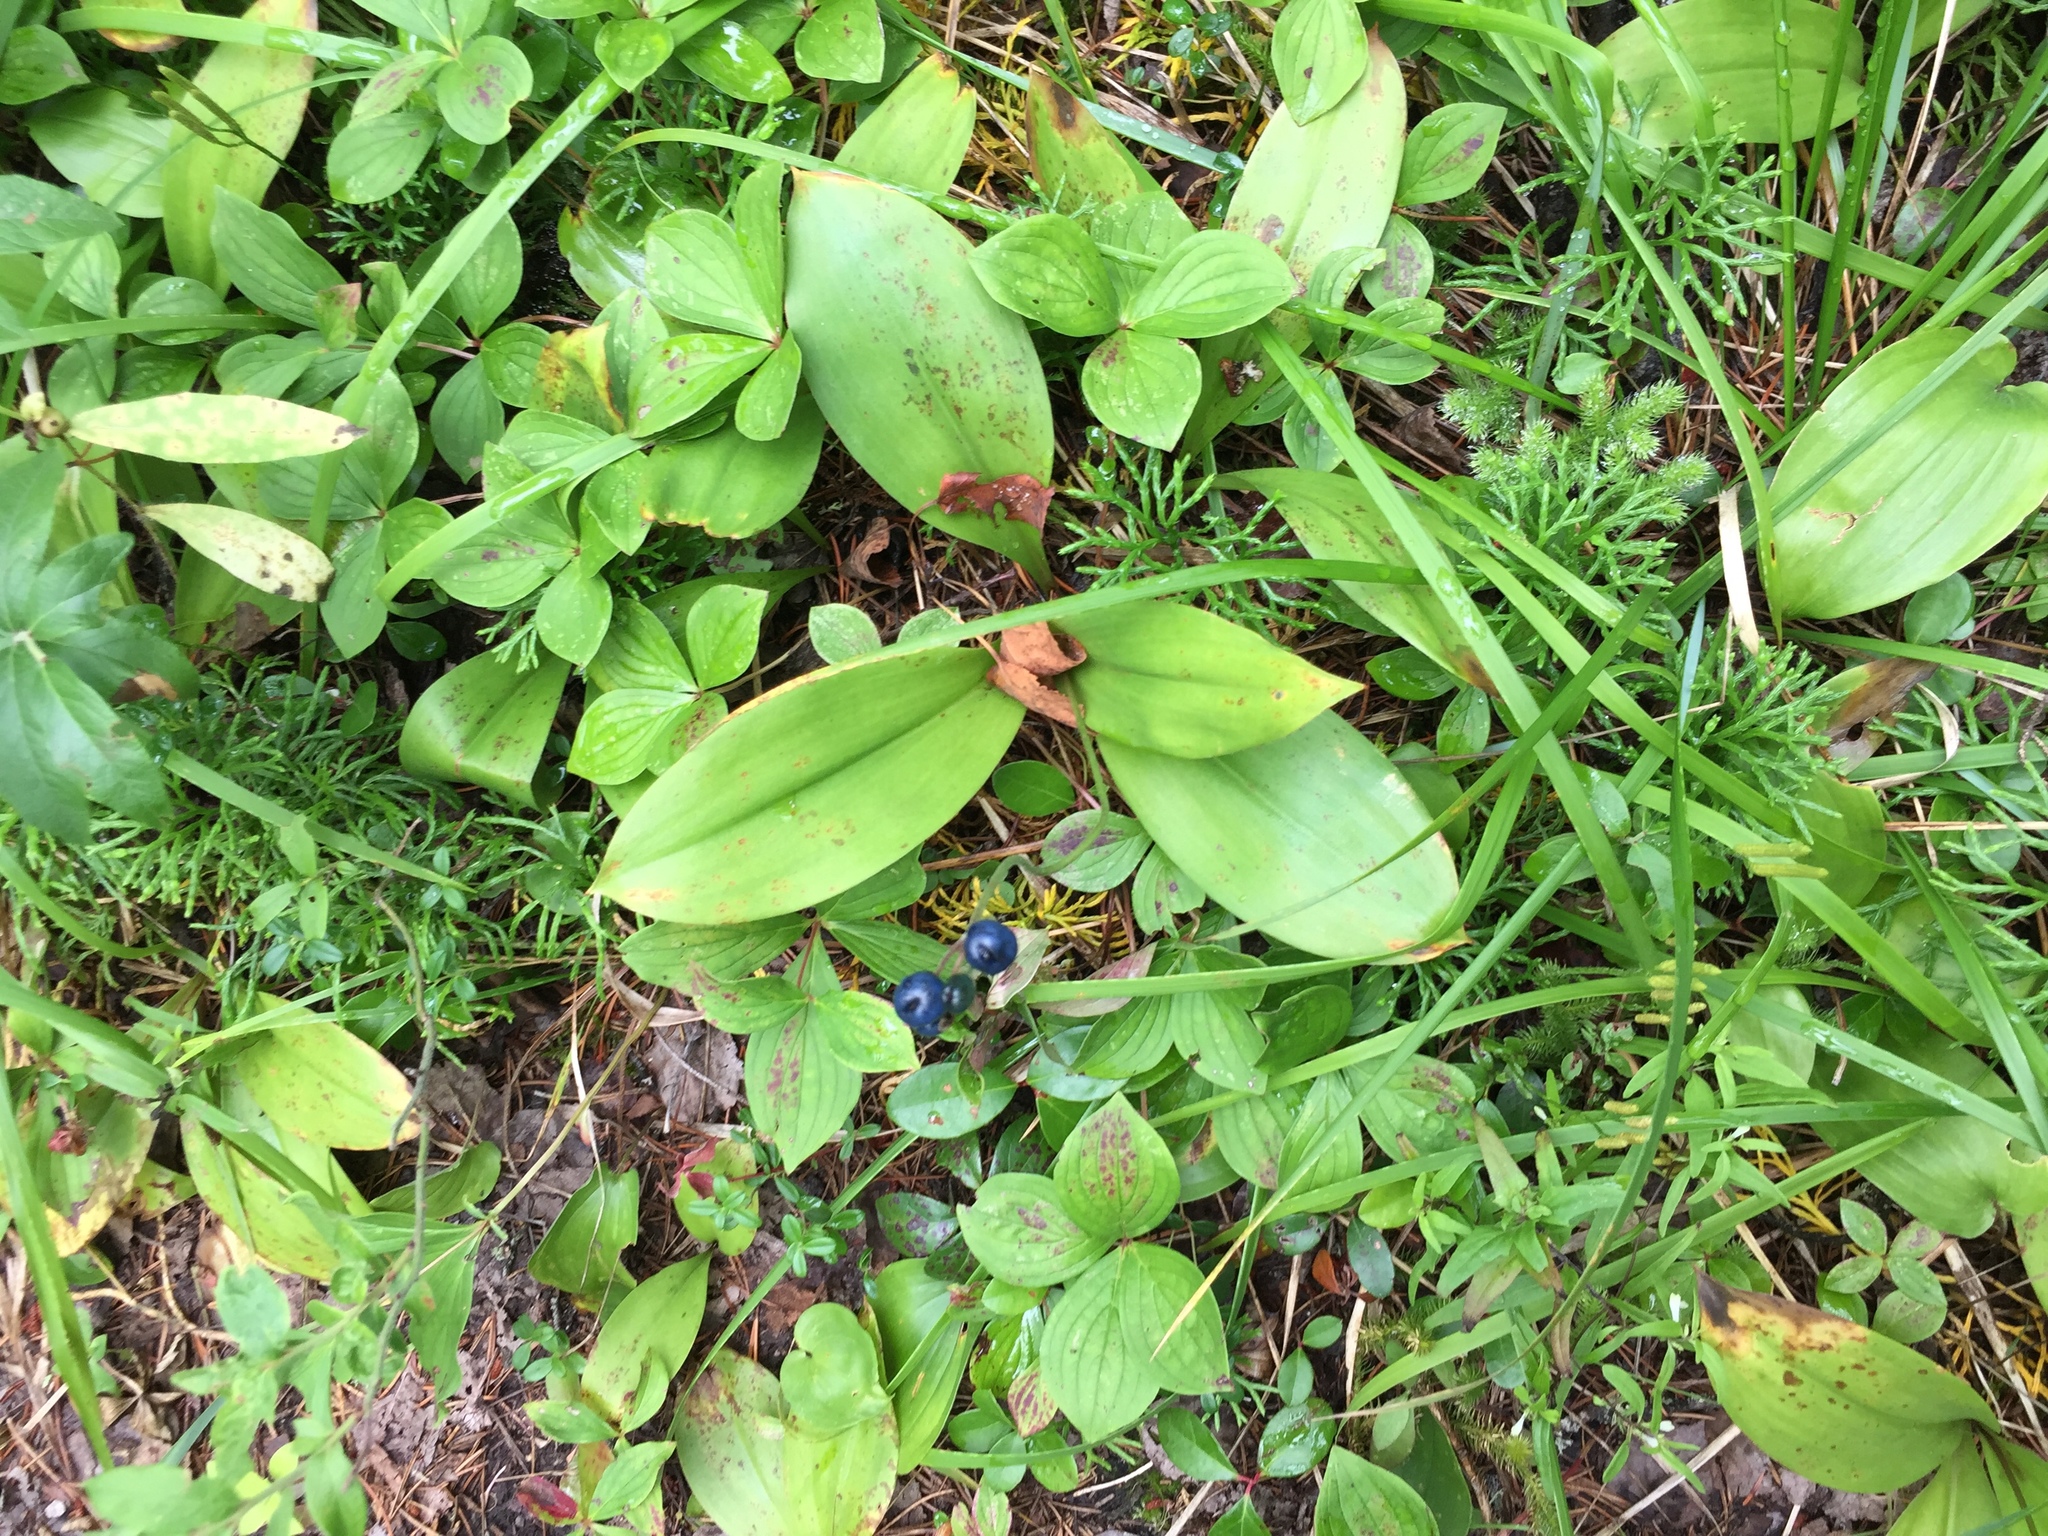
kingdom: Plantae
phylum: Tracheophyta
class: Liliopsida
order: Liliales
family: Liliaceae
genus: Clintonia
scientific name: Clintonia borealis
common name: Yellow clintonia
